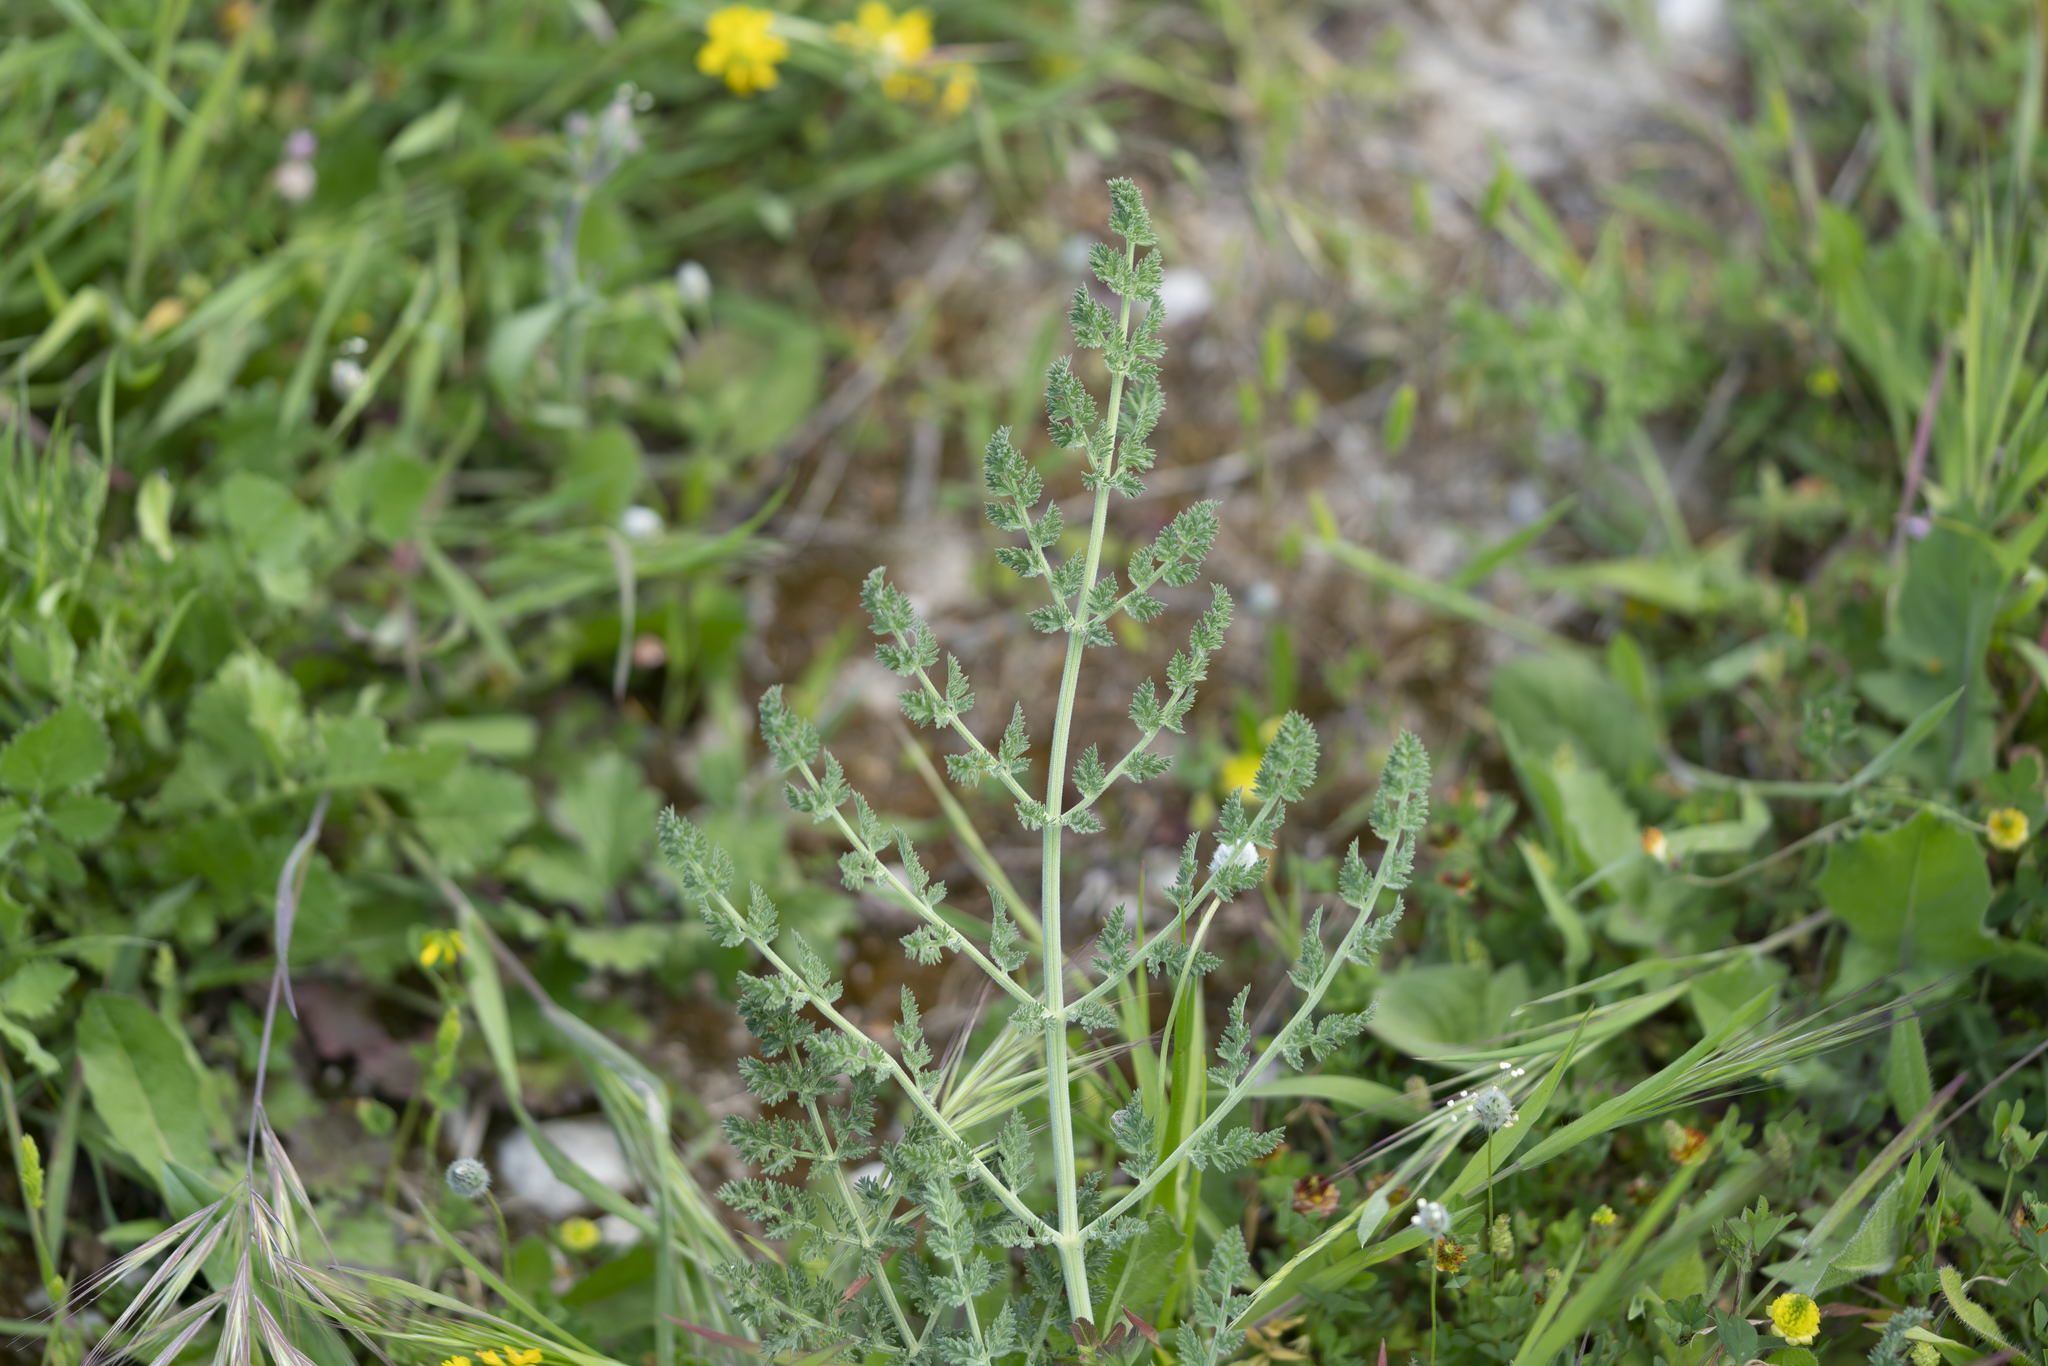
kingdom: Plantae
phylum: Tracheophyta
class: Magnoliopsida
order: Apiales
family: Apiaceae
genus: Echinophora
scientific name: Echinophora sibthorpiana
